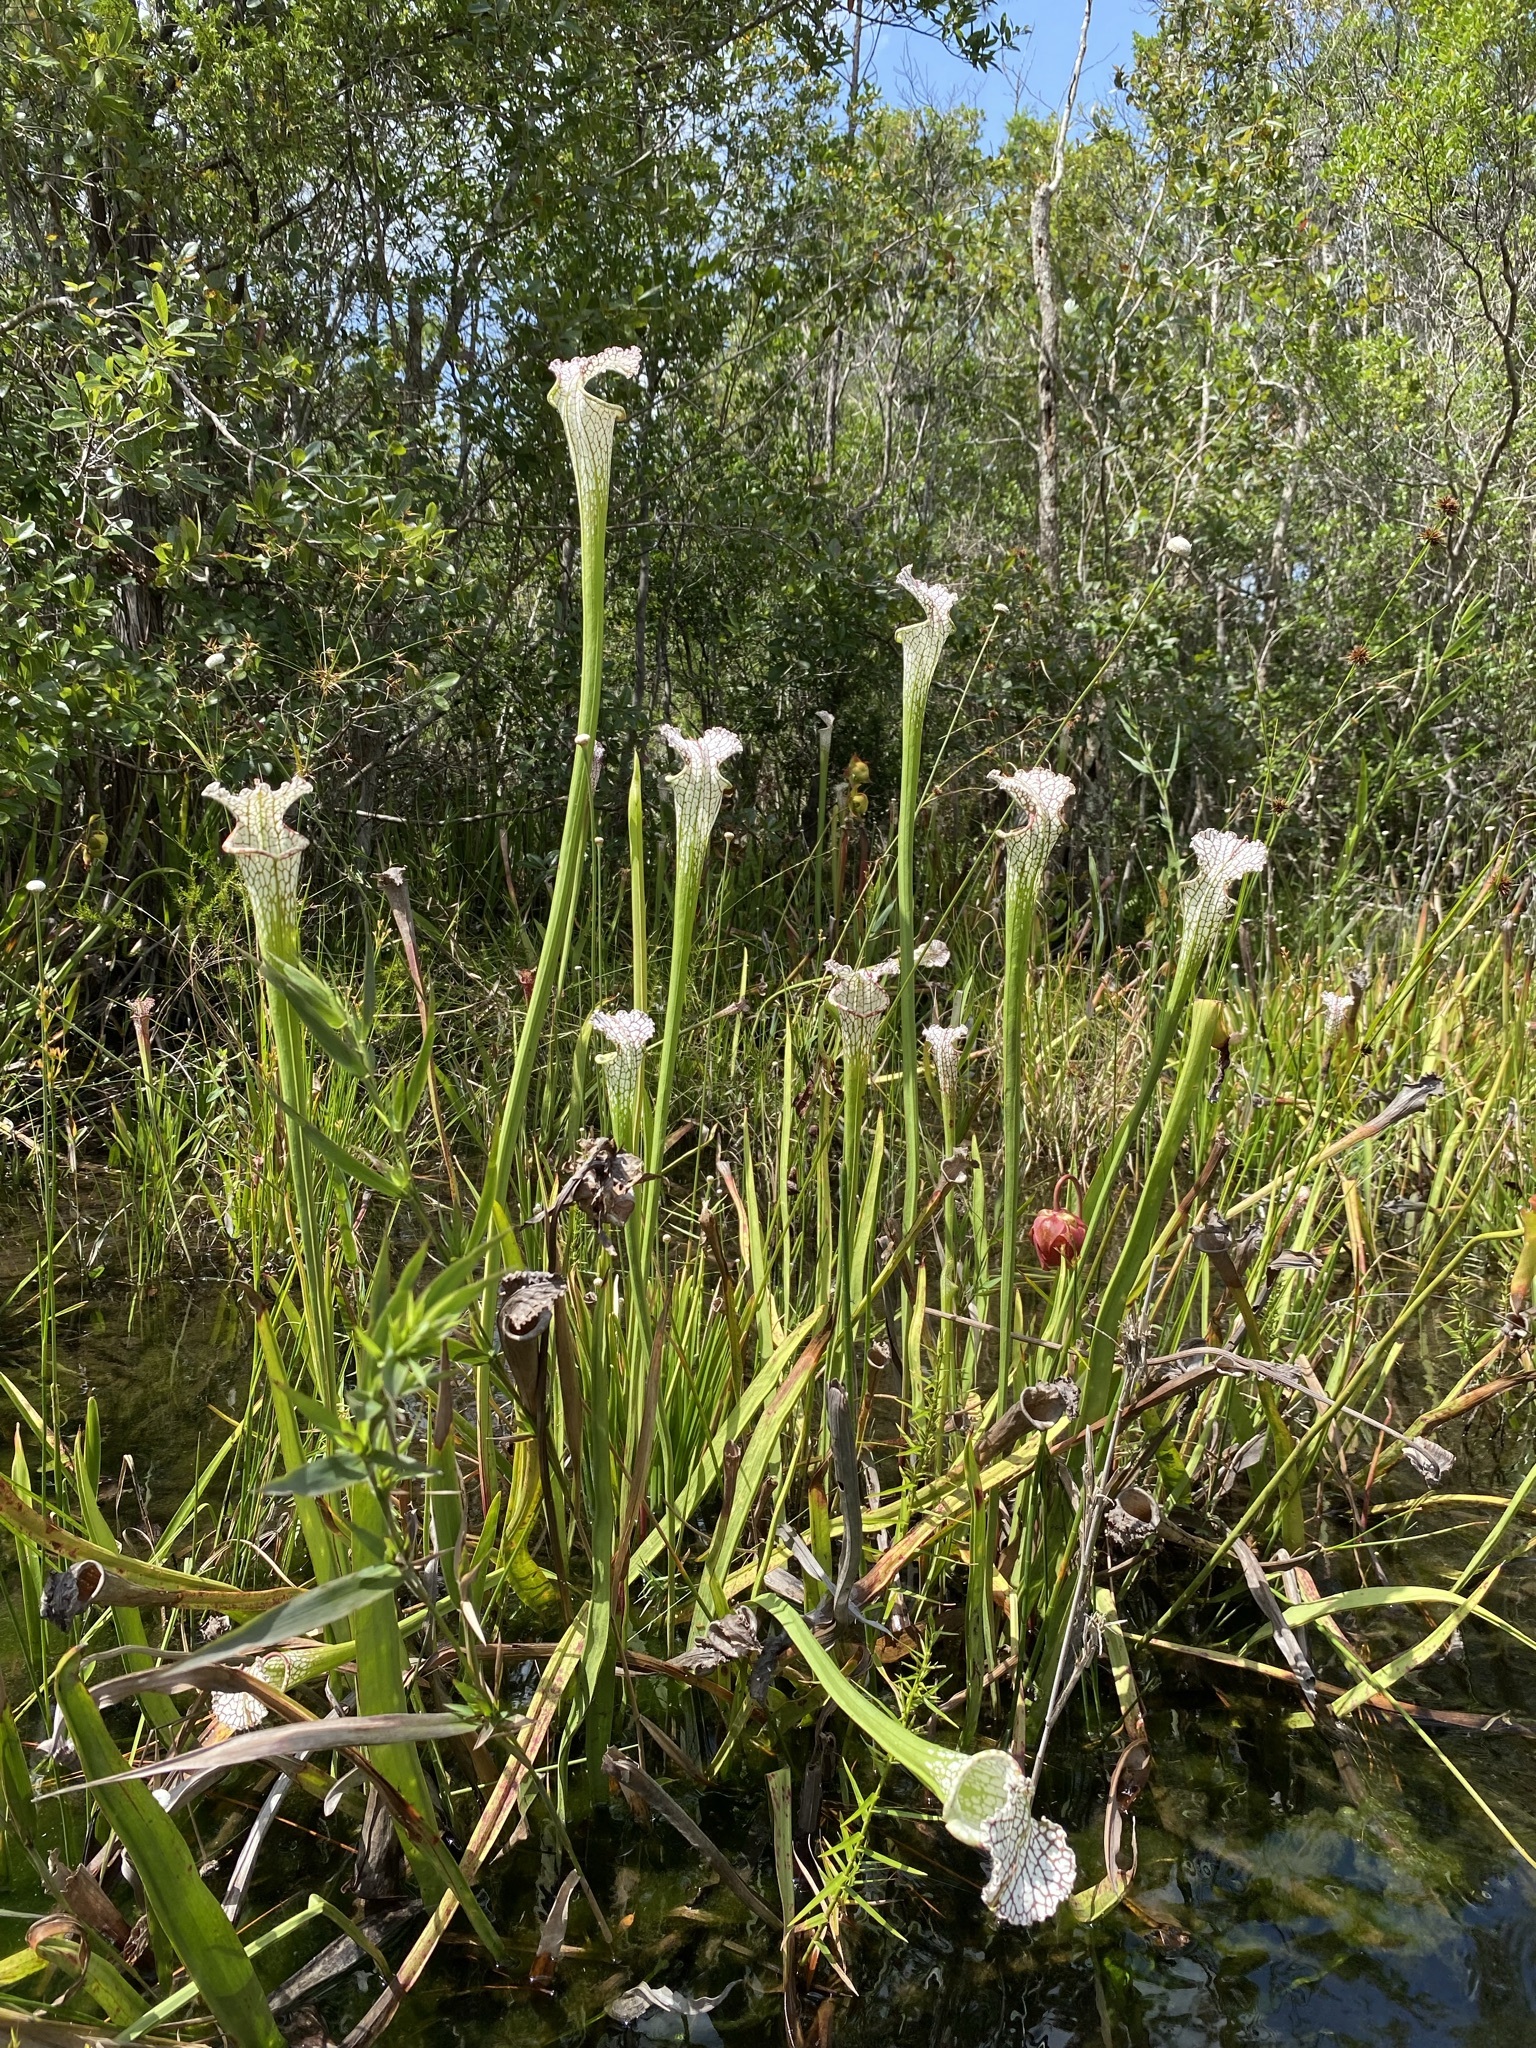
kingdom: Plantae
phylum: Tracheophyta
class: Magnoliopsida
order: Ericales
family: Sarraceniaceae
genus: Sarracenia
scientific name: Sarracenia leucophylla
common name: Purple trumpetleaf
